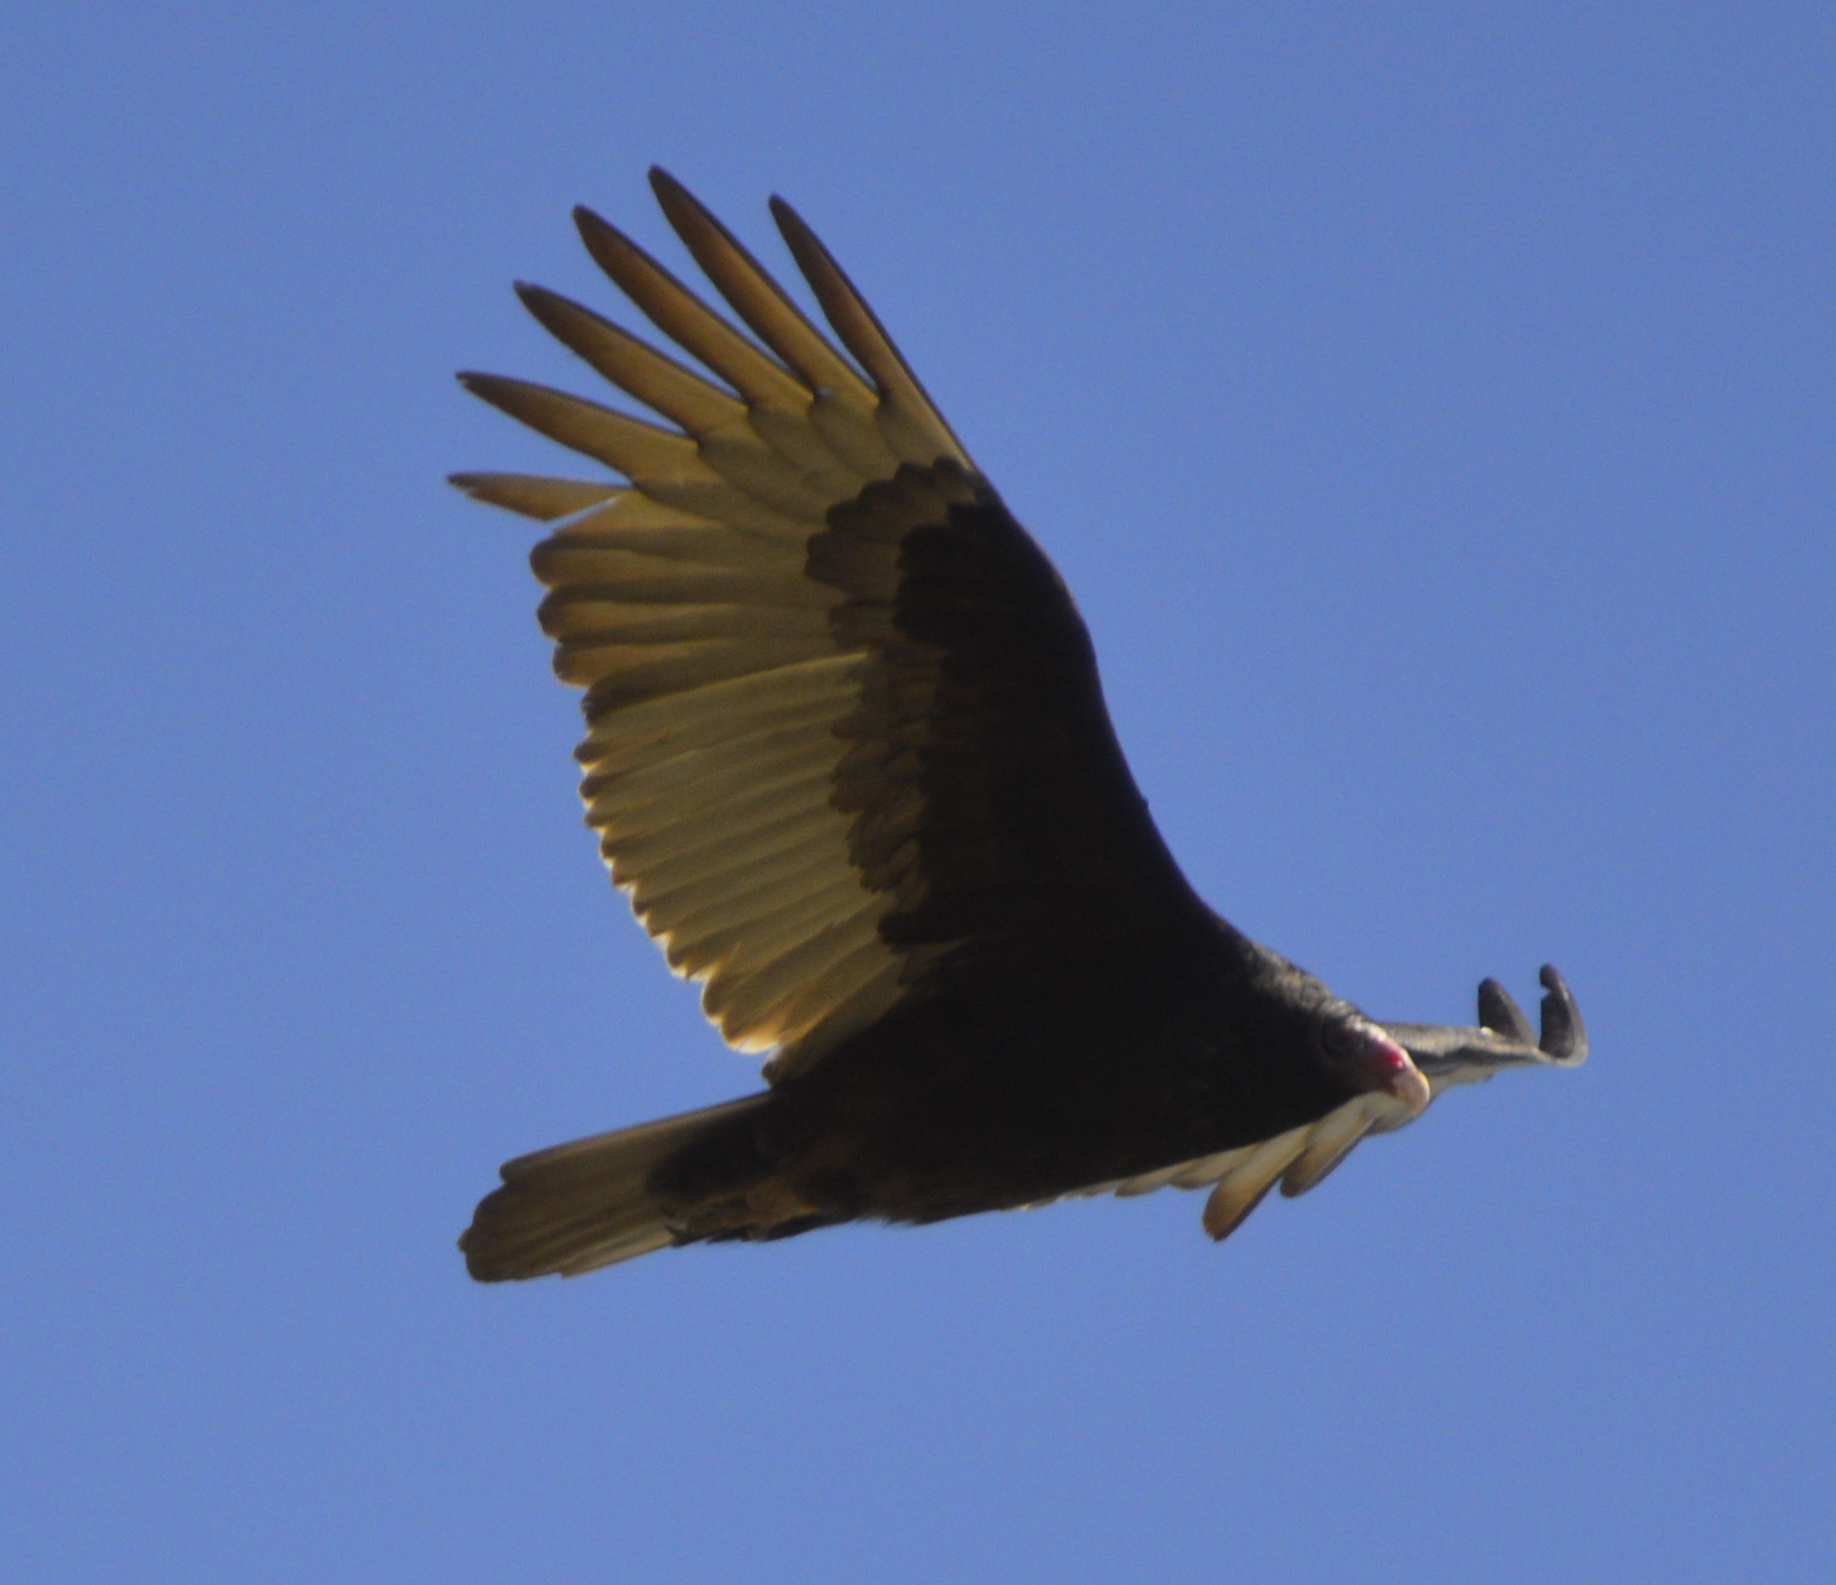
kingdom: Animalia
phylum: Chordata
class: Aves
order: Accipitriformes
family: Cathartidae
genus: Cathartes
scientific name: Cathartes aura
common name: Turkey vulture
